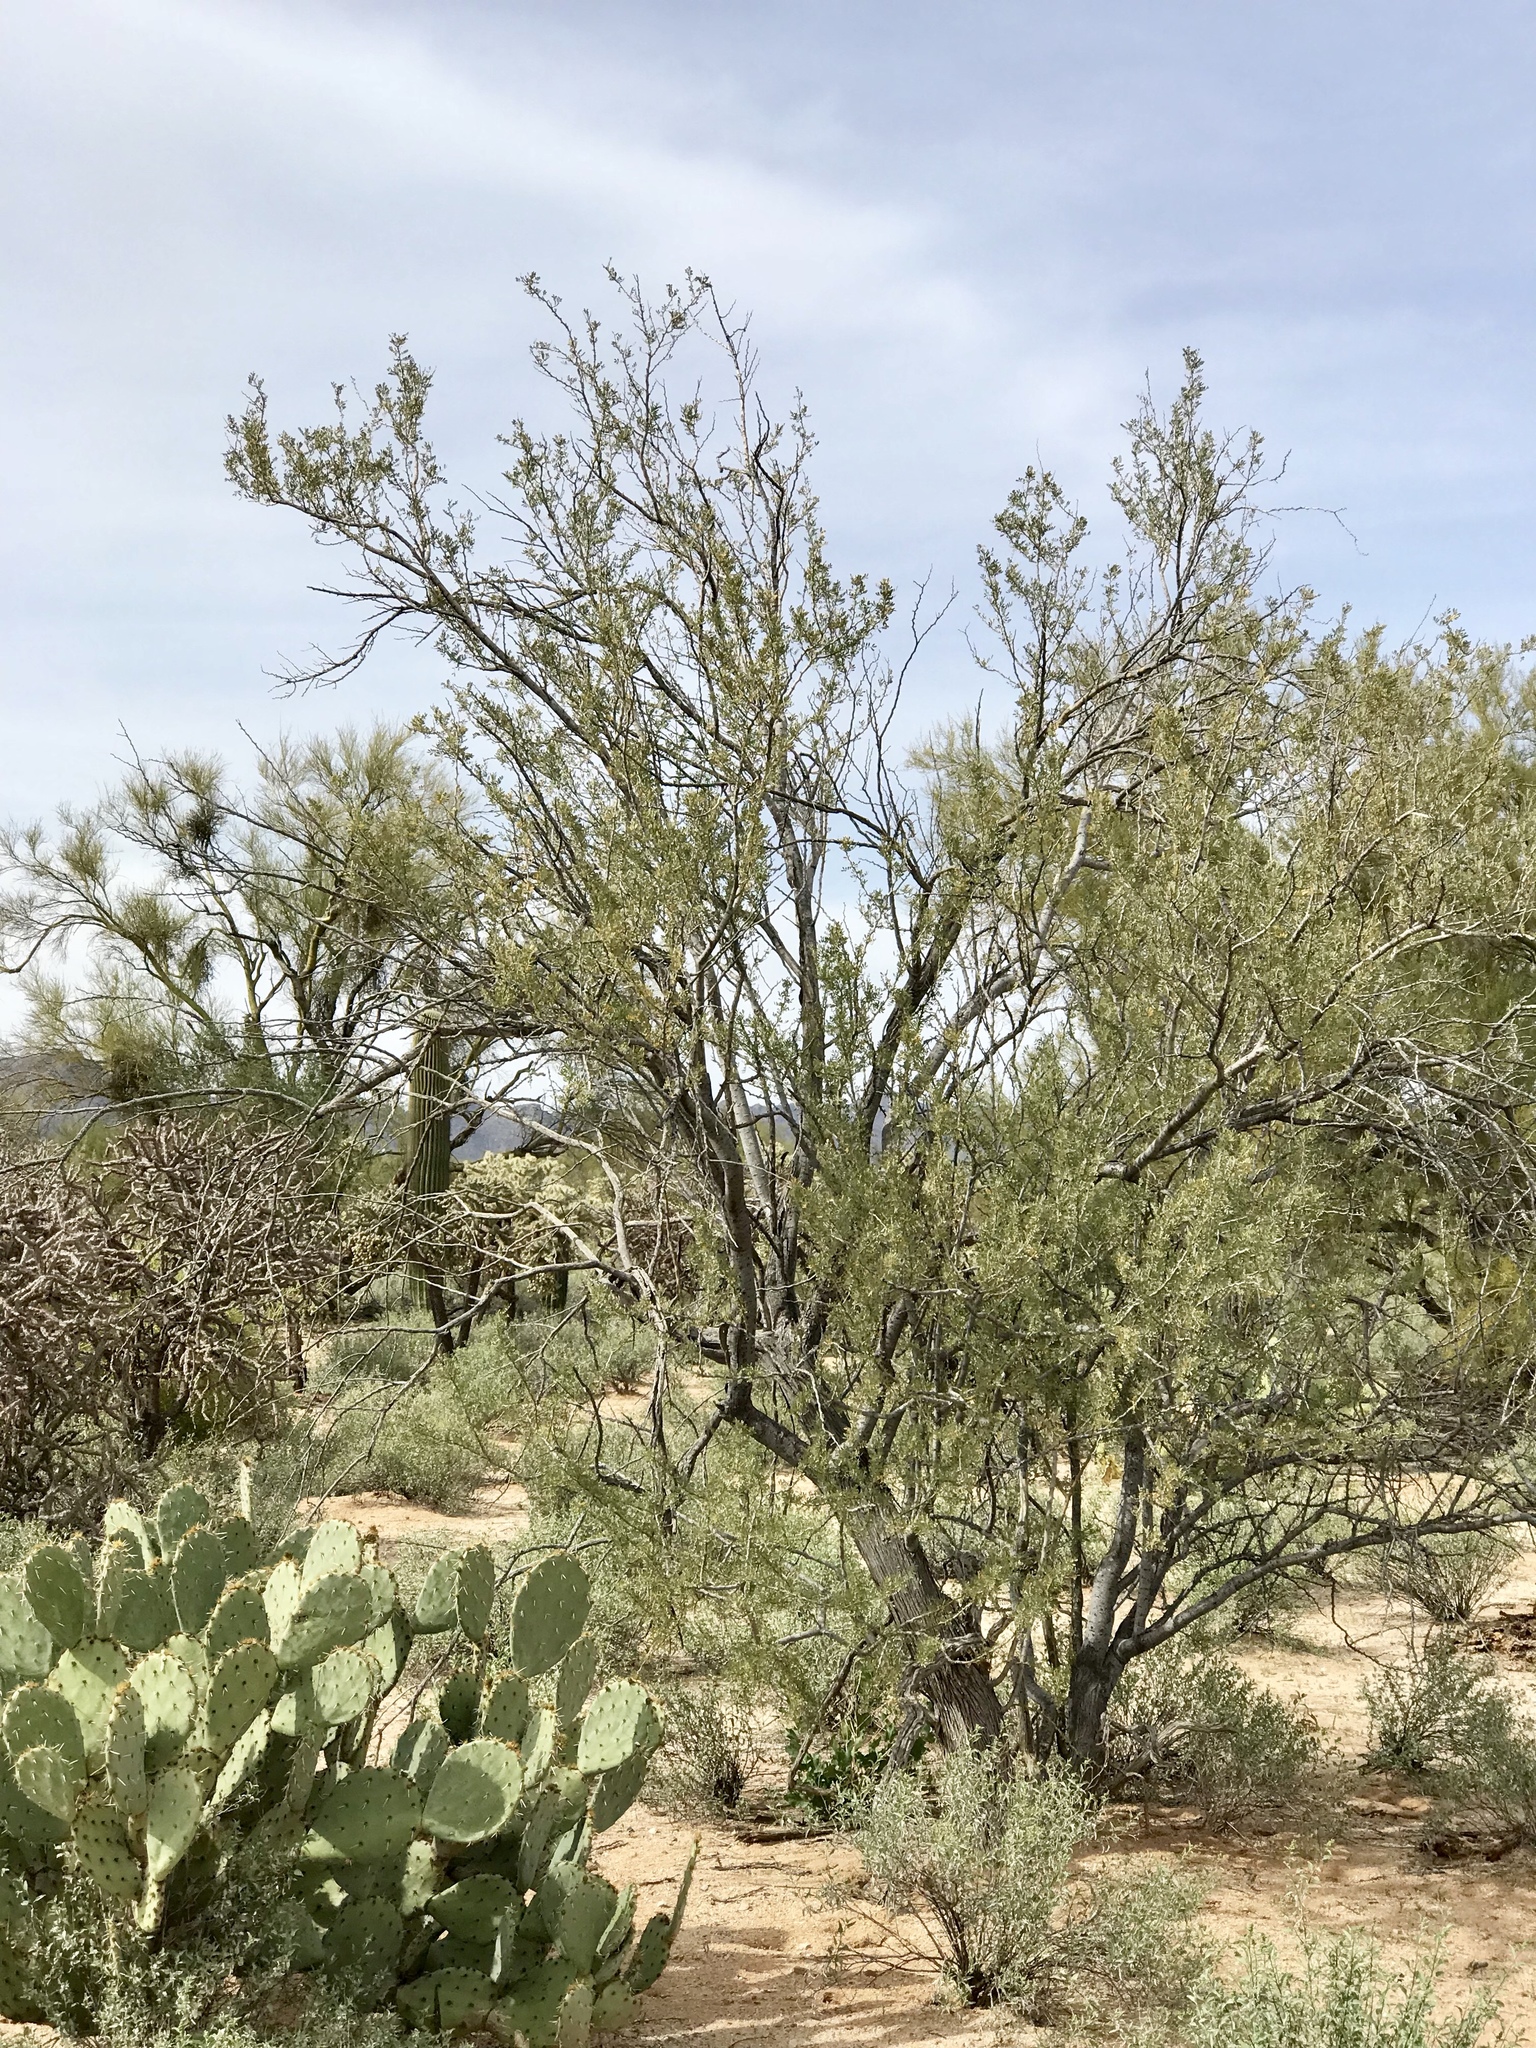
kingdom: Plantae
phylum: Tracheophyta
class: Magnoliopsida
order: Fabales
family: Fabaceae
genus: Olneya
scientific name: Olneya tesota
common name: Desert ironwood
